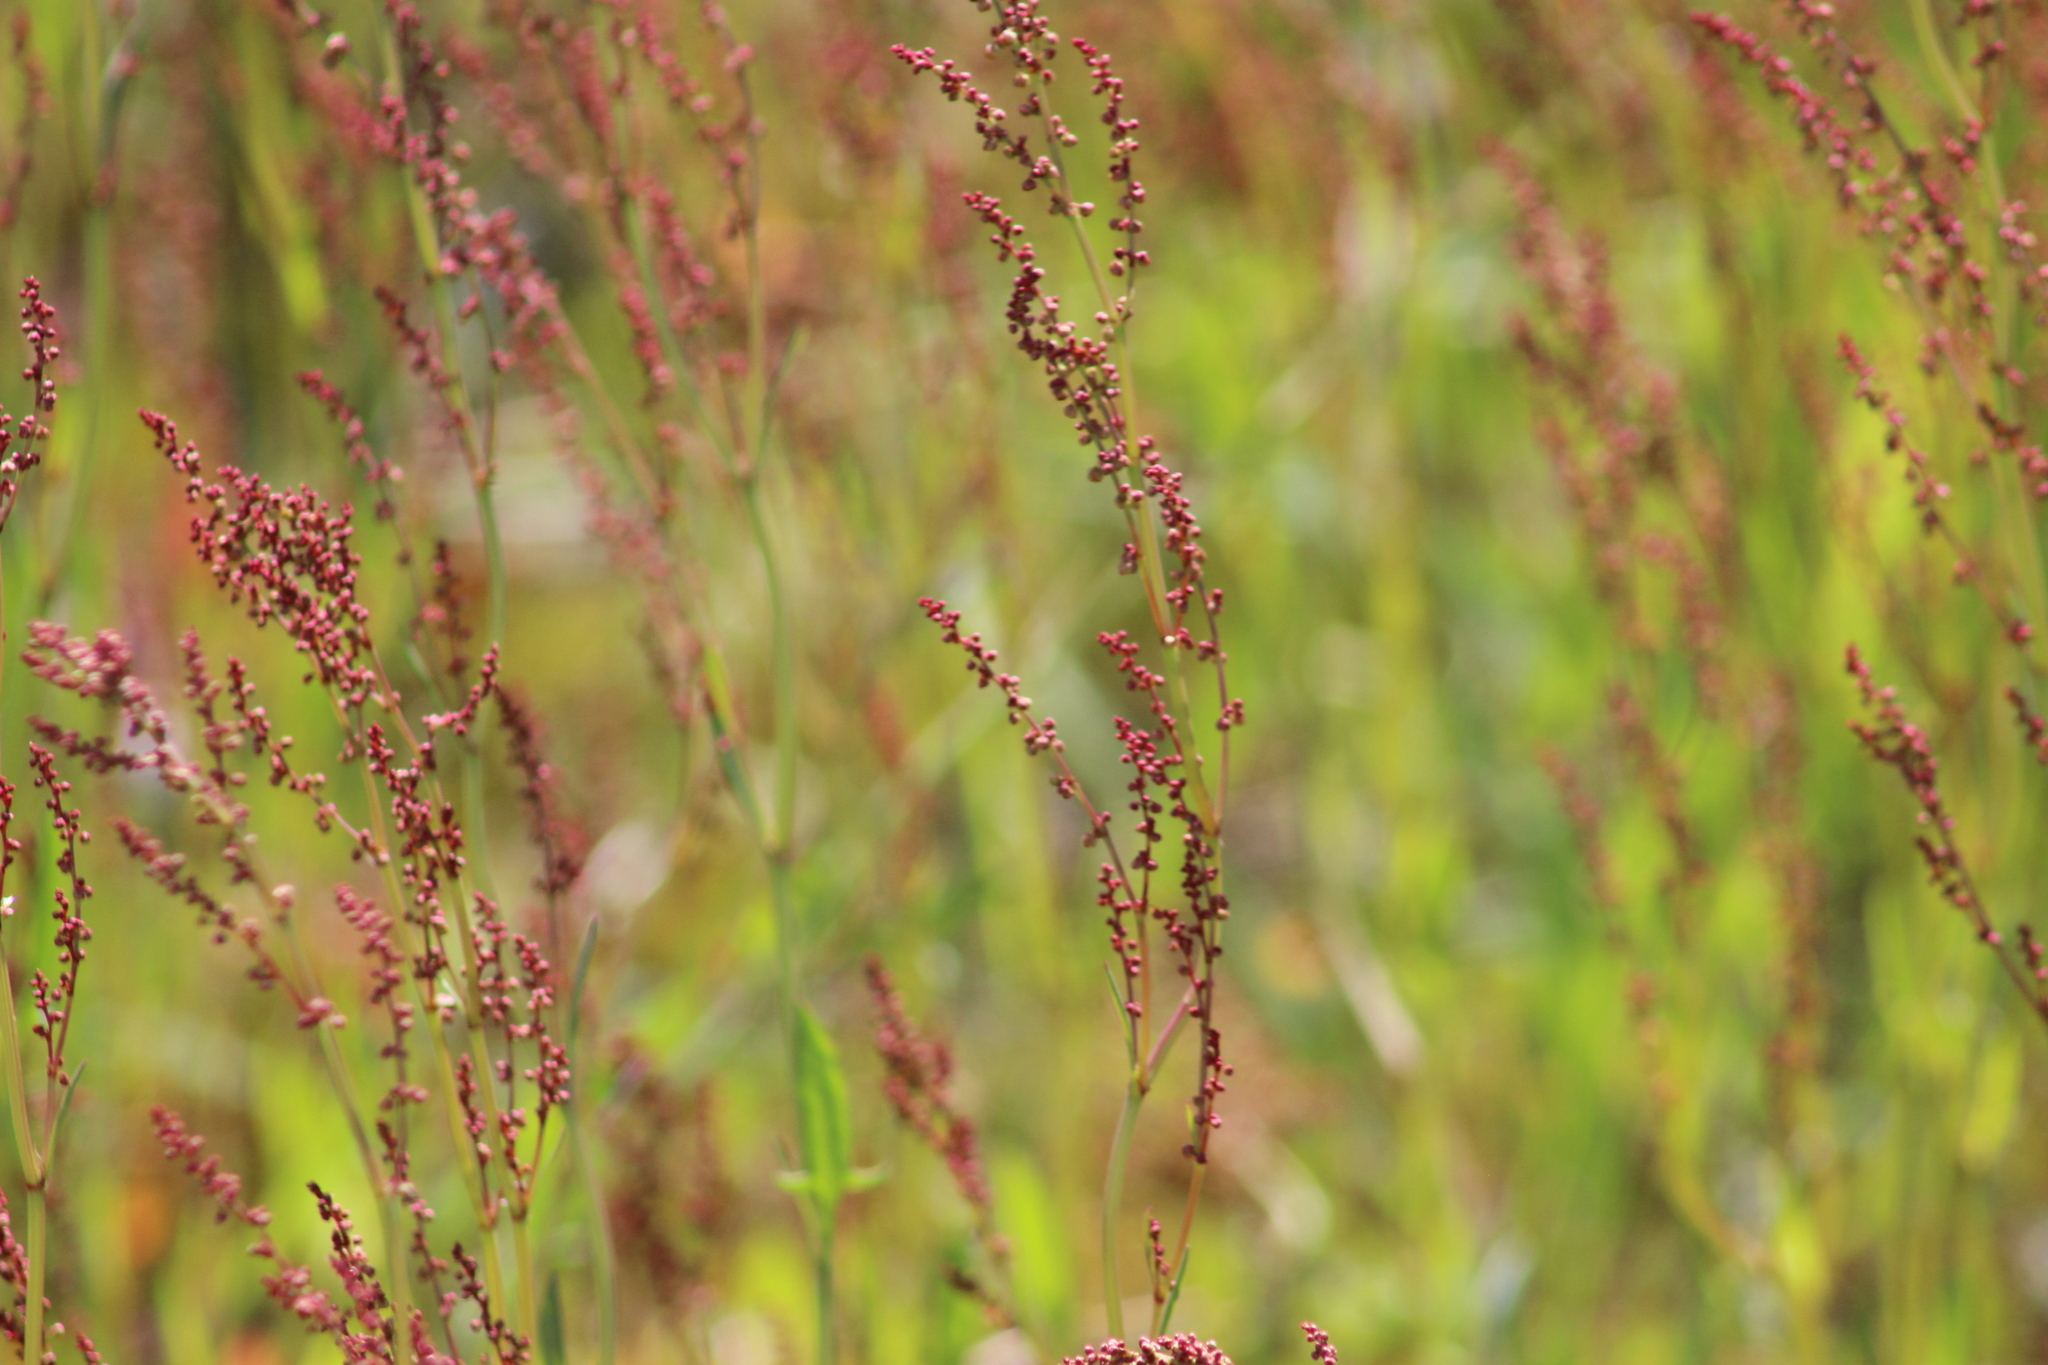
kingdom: Plantae
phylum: Tracheophyta
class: Magnoliopsida
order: Caryophyllales
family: Polygonaceae
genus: Rumex
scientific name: Rumex acetosella
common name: Common sheep sorrel
